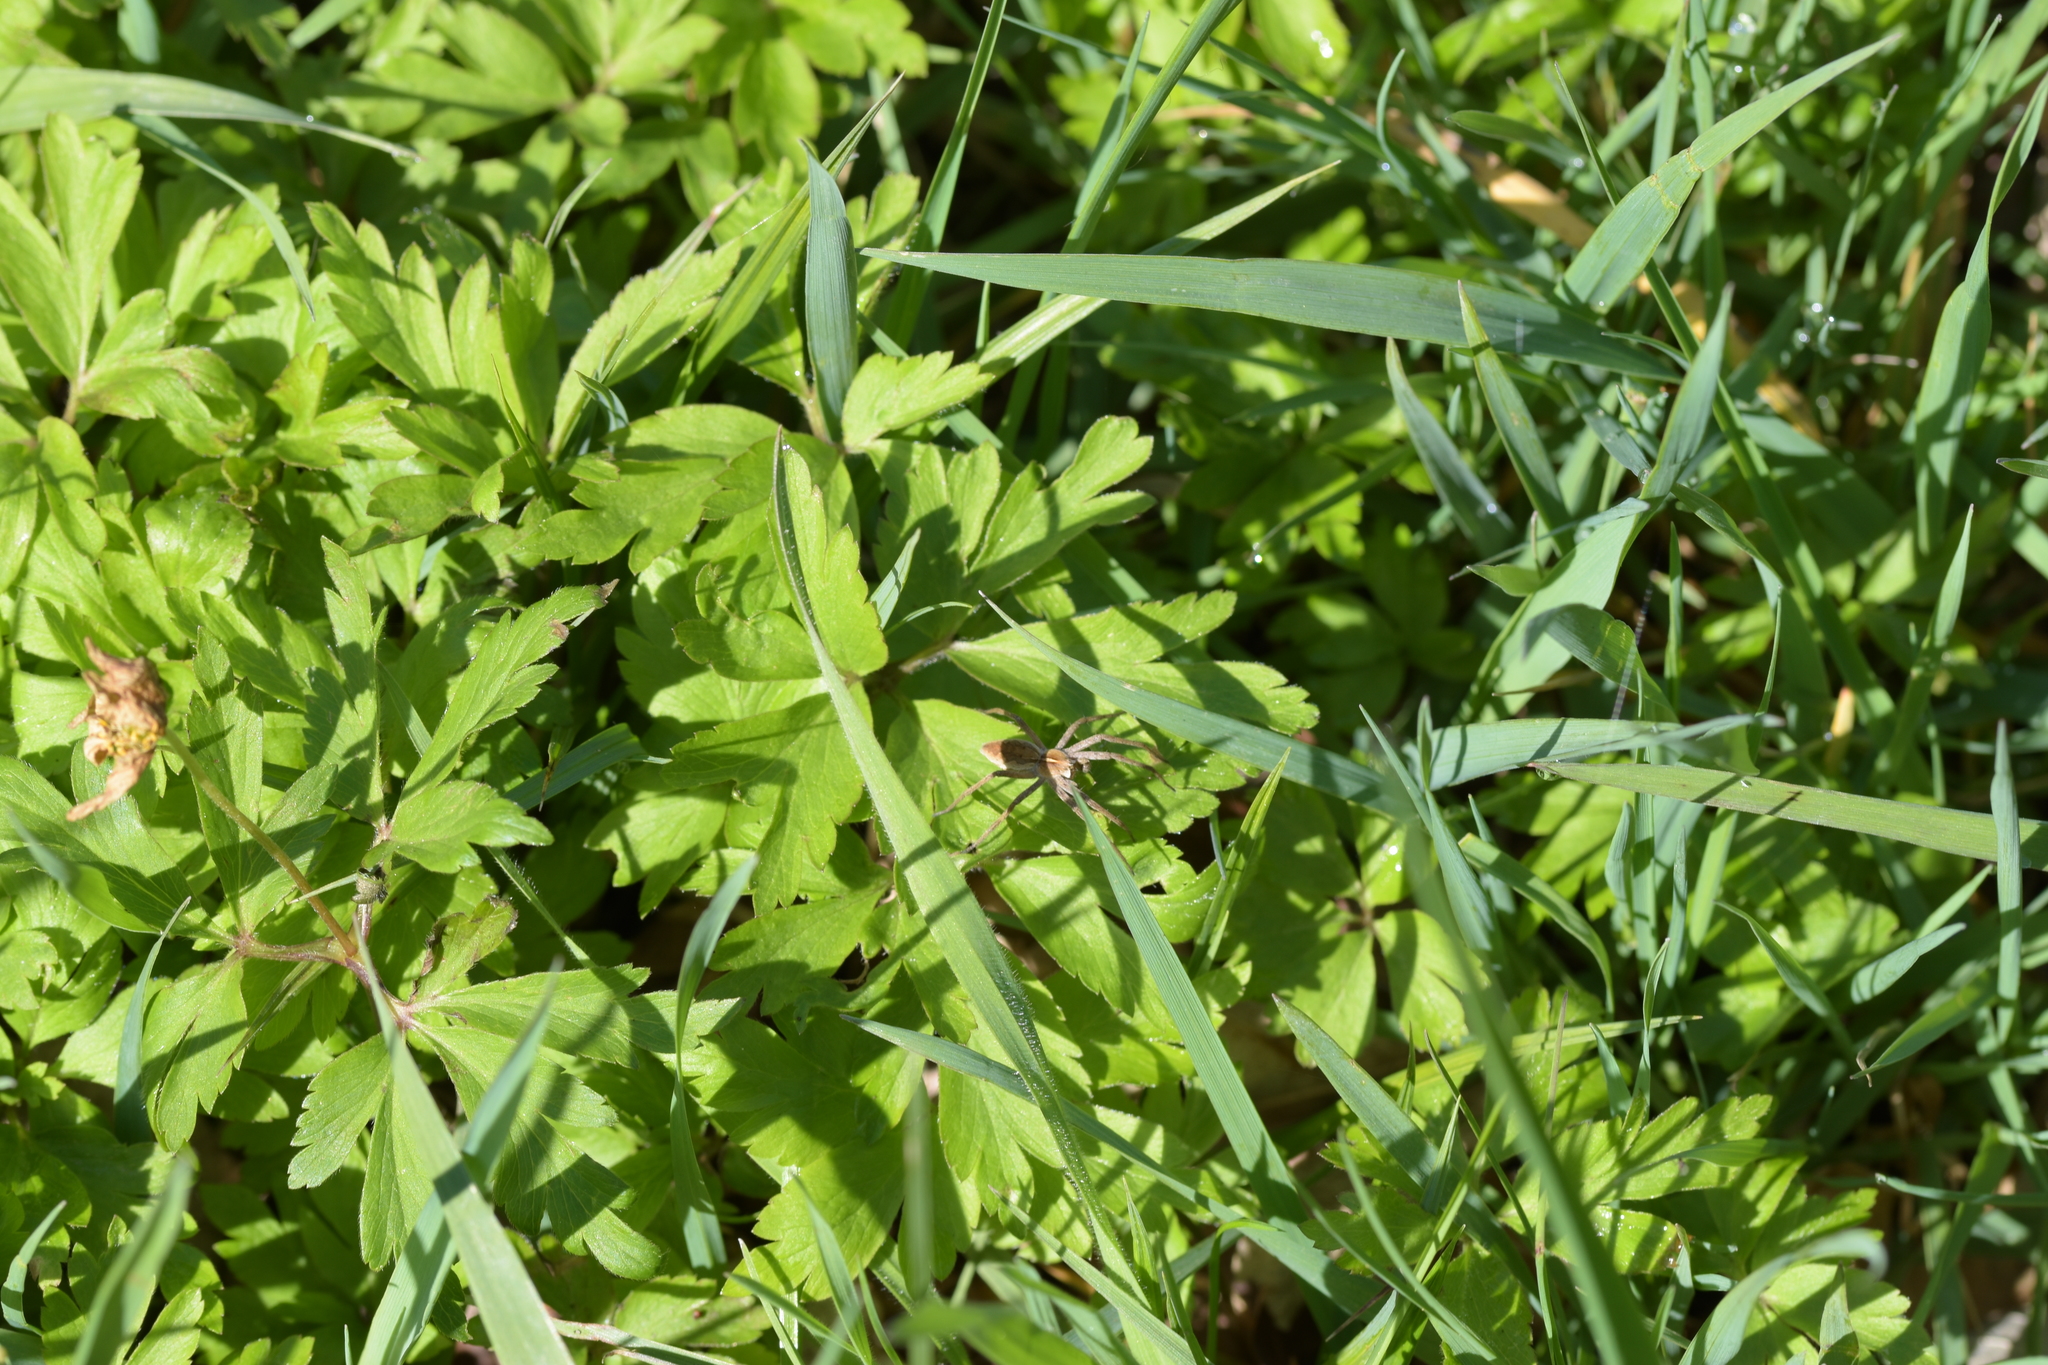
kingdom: Animalia
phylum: Arthropoda
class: Arachnida
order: Araneae
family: Pisauridae
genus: Pisaura
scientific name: Pisaura mirabilis
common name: Tent spider
